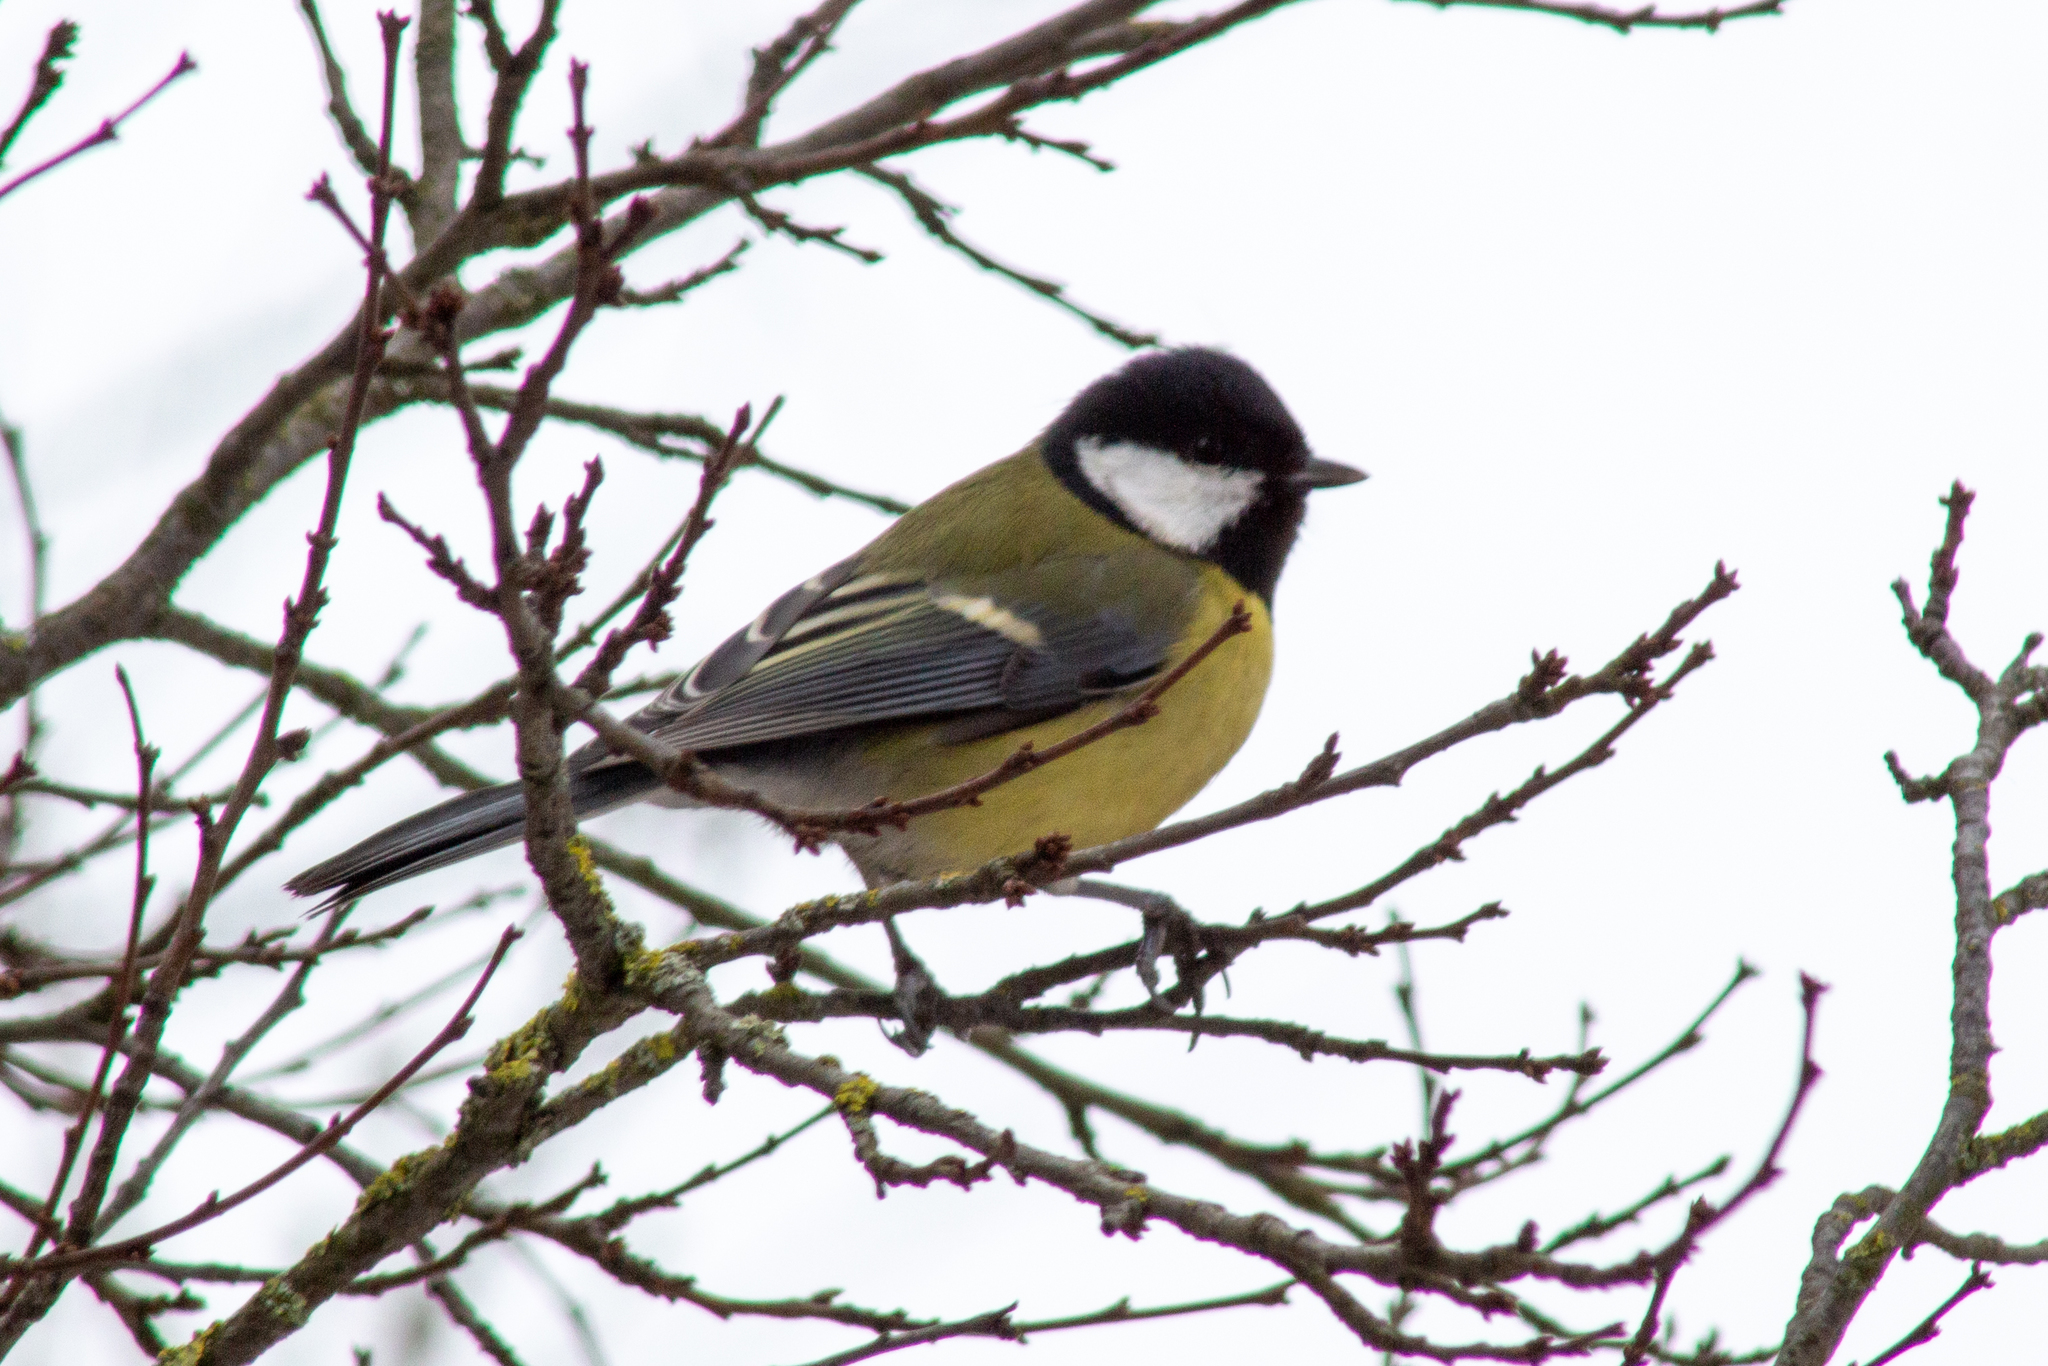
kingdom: Animalia
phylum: Chordata
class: Aves
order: Passeriformes
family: Paridae
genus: Parus
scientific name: Parus major
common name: Great tit
